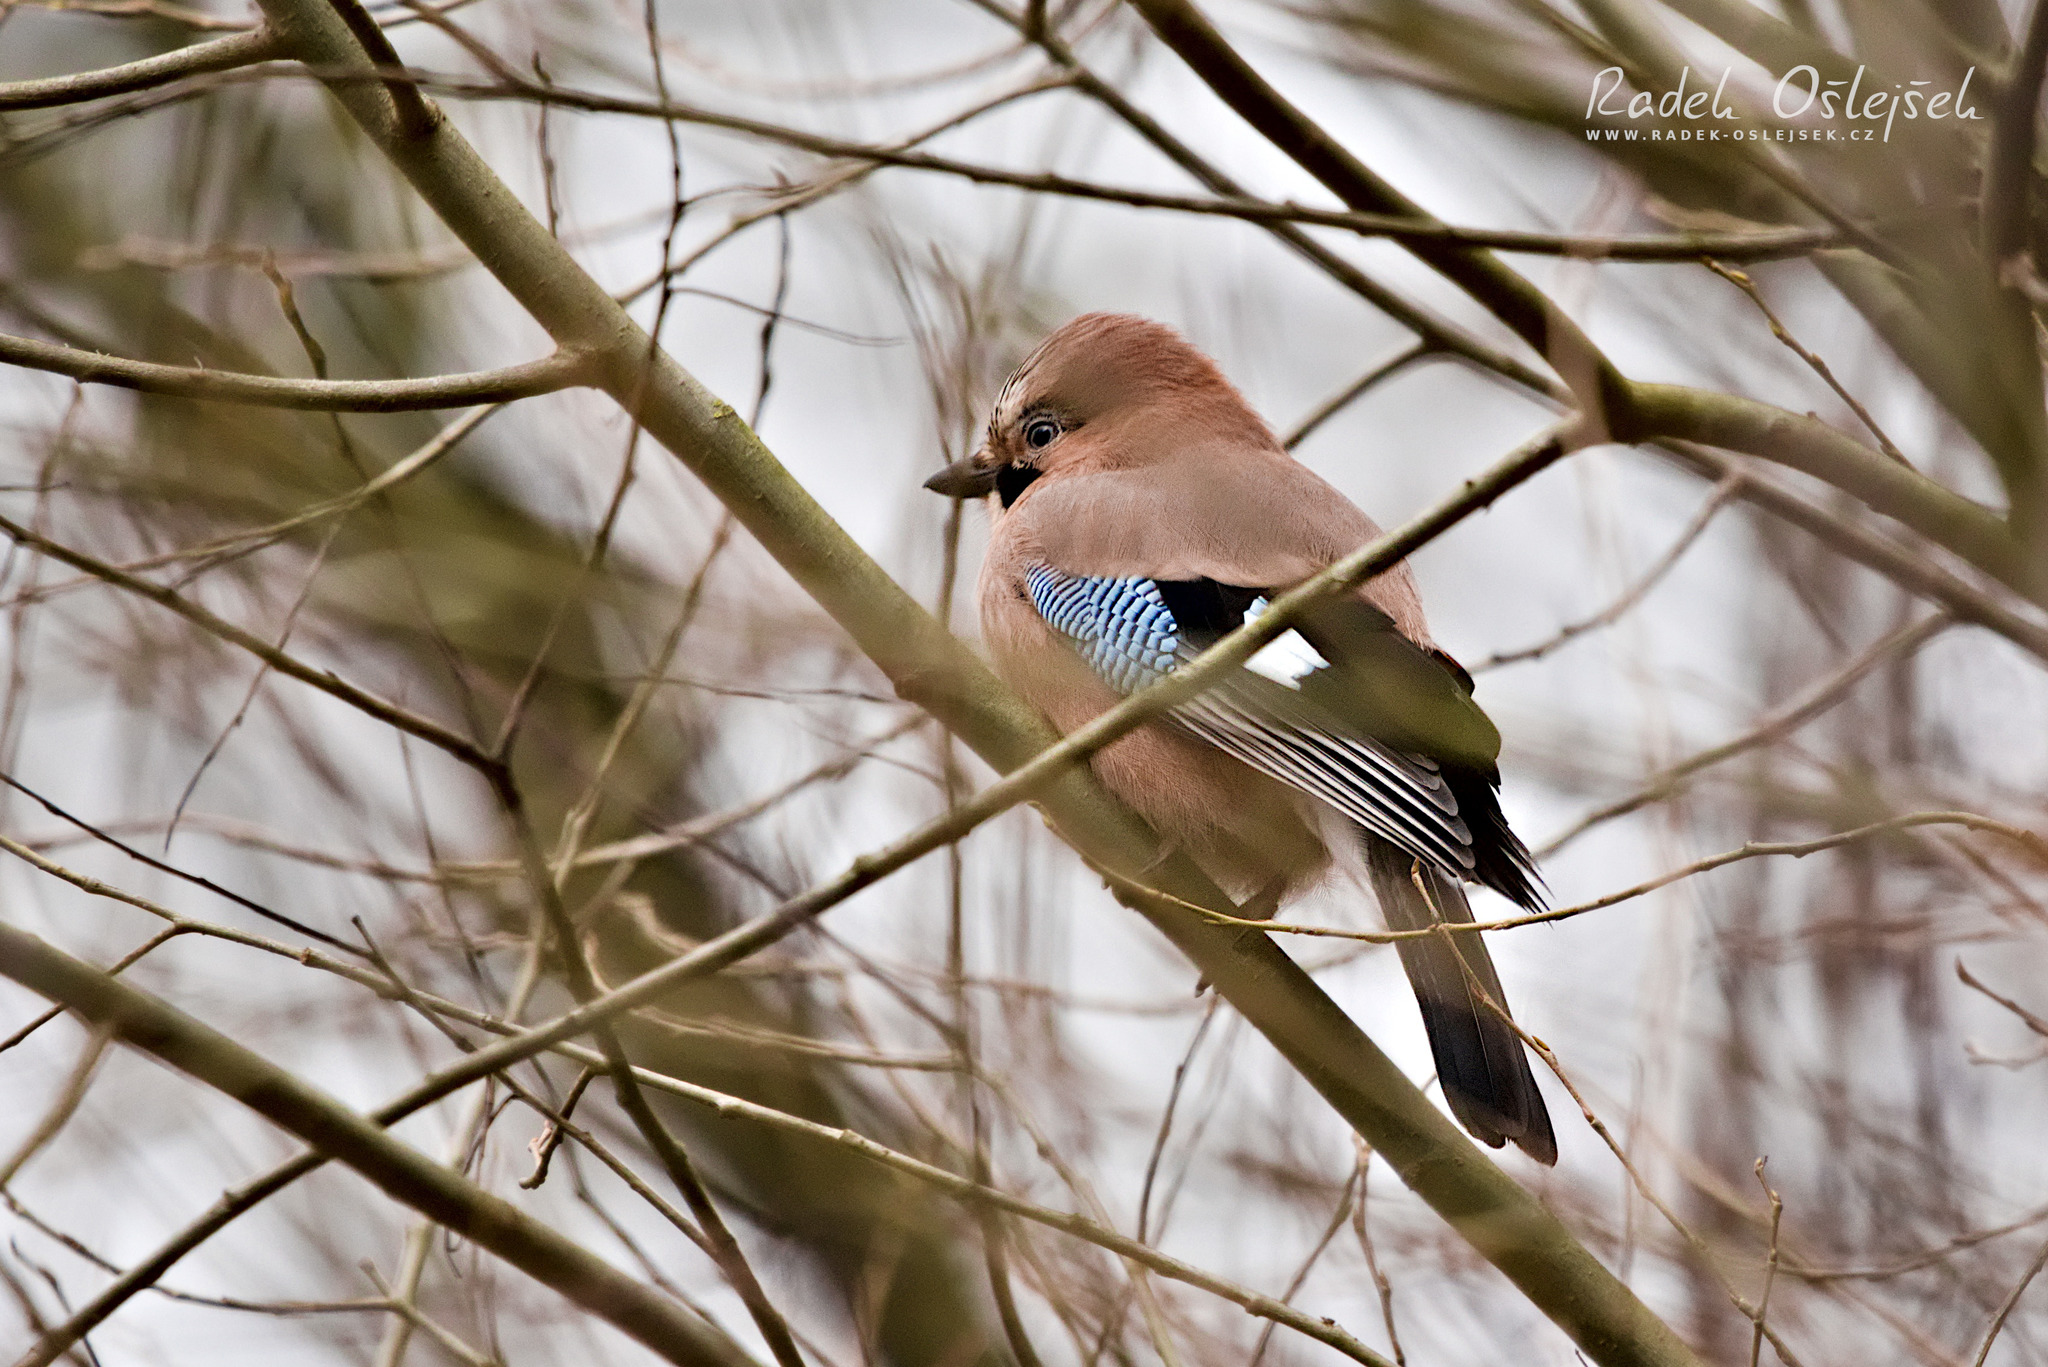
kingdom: Animalia
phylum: Chordata
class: Aves
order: Passeriformes
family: Corvidae
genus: Garrulus
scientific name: Garrulus glandarius
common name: Eurasian jay
